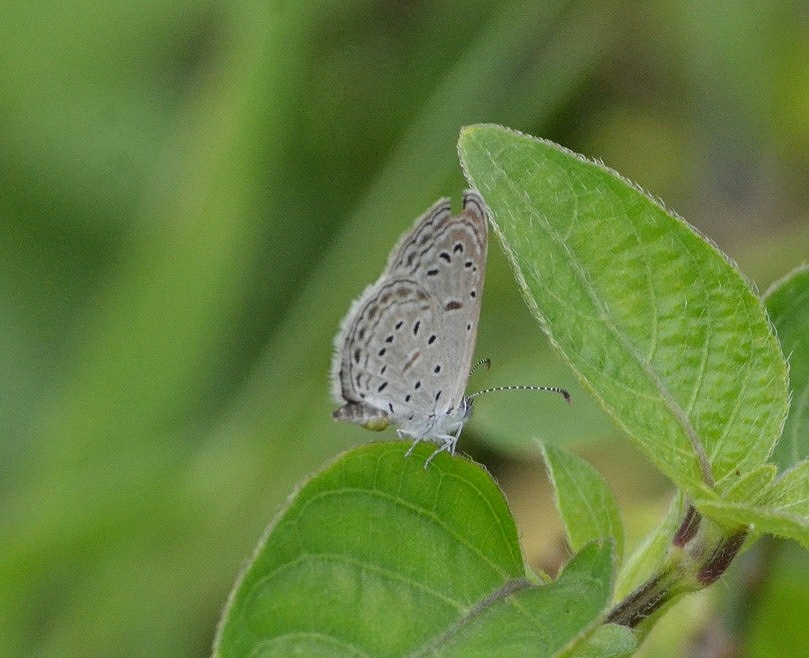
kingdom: Animalia
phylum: Arthropoda
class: Insecta
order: Lepidoptera
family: Lycaenidae
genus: Zizula
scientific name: Zizula hylax
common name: Gaika blue
